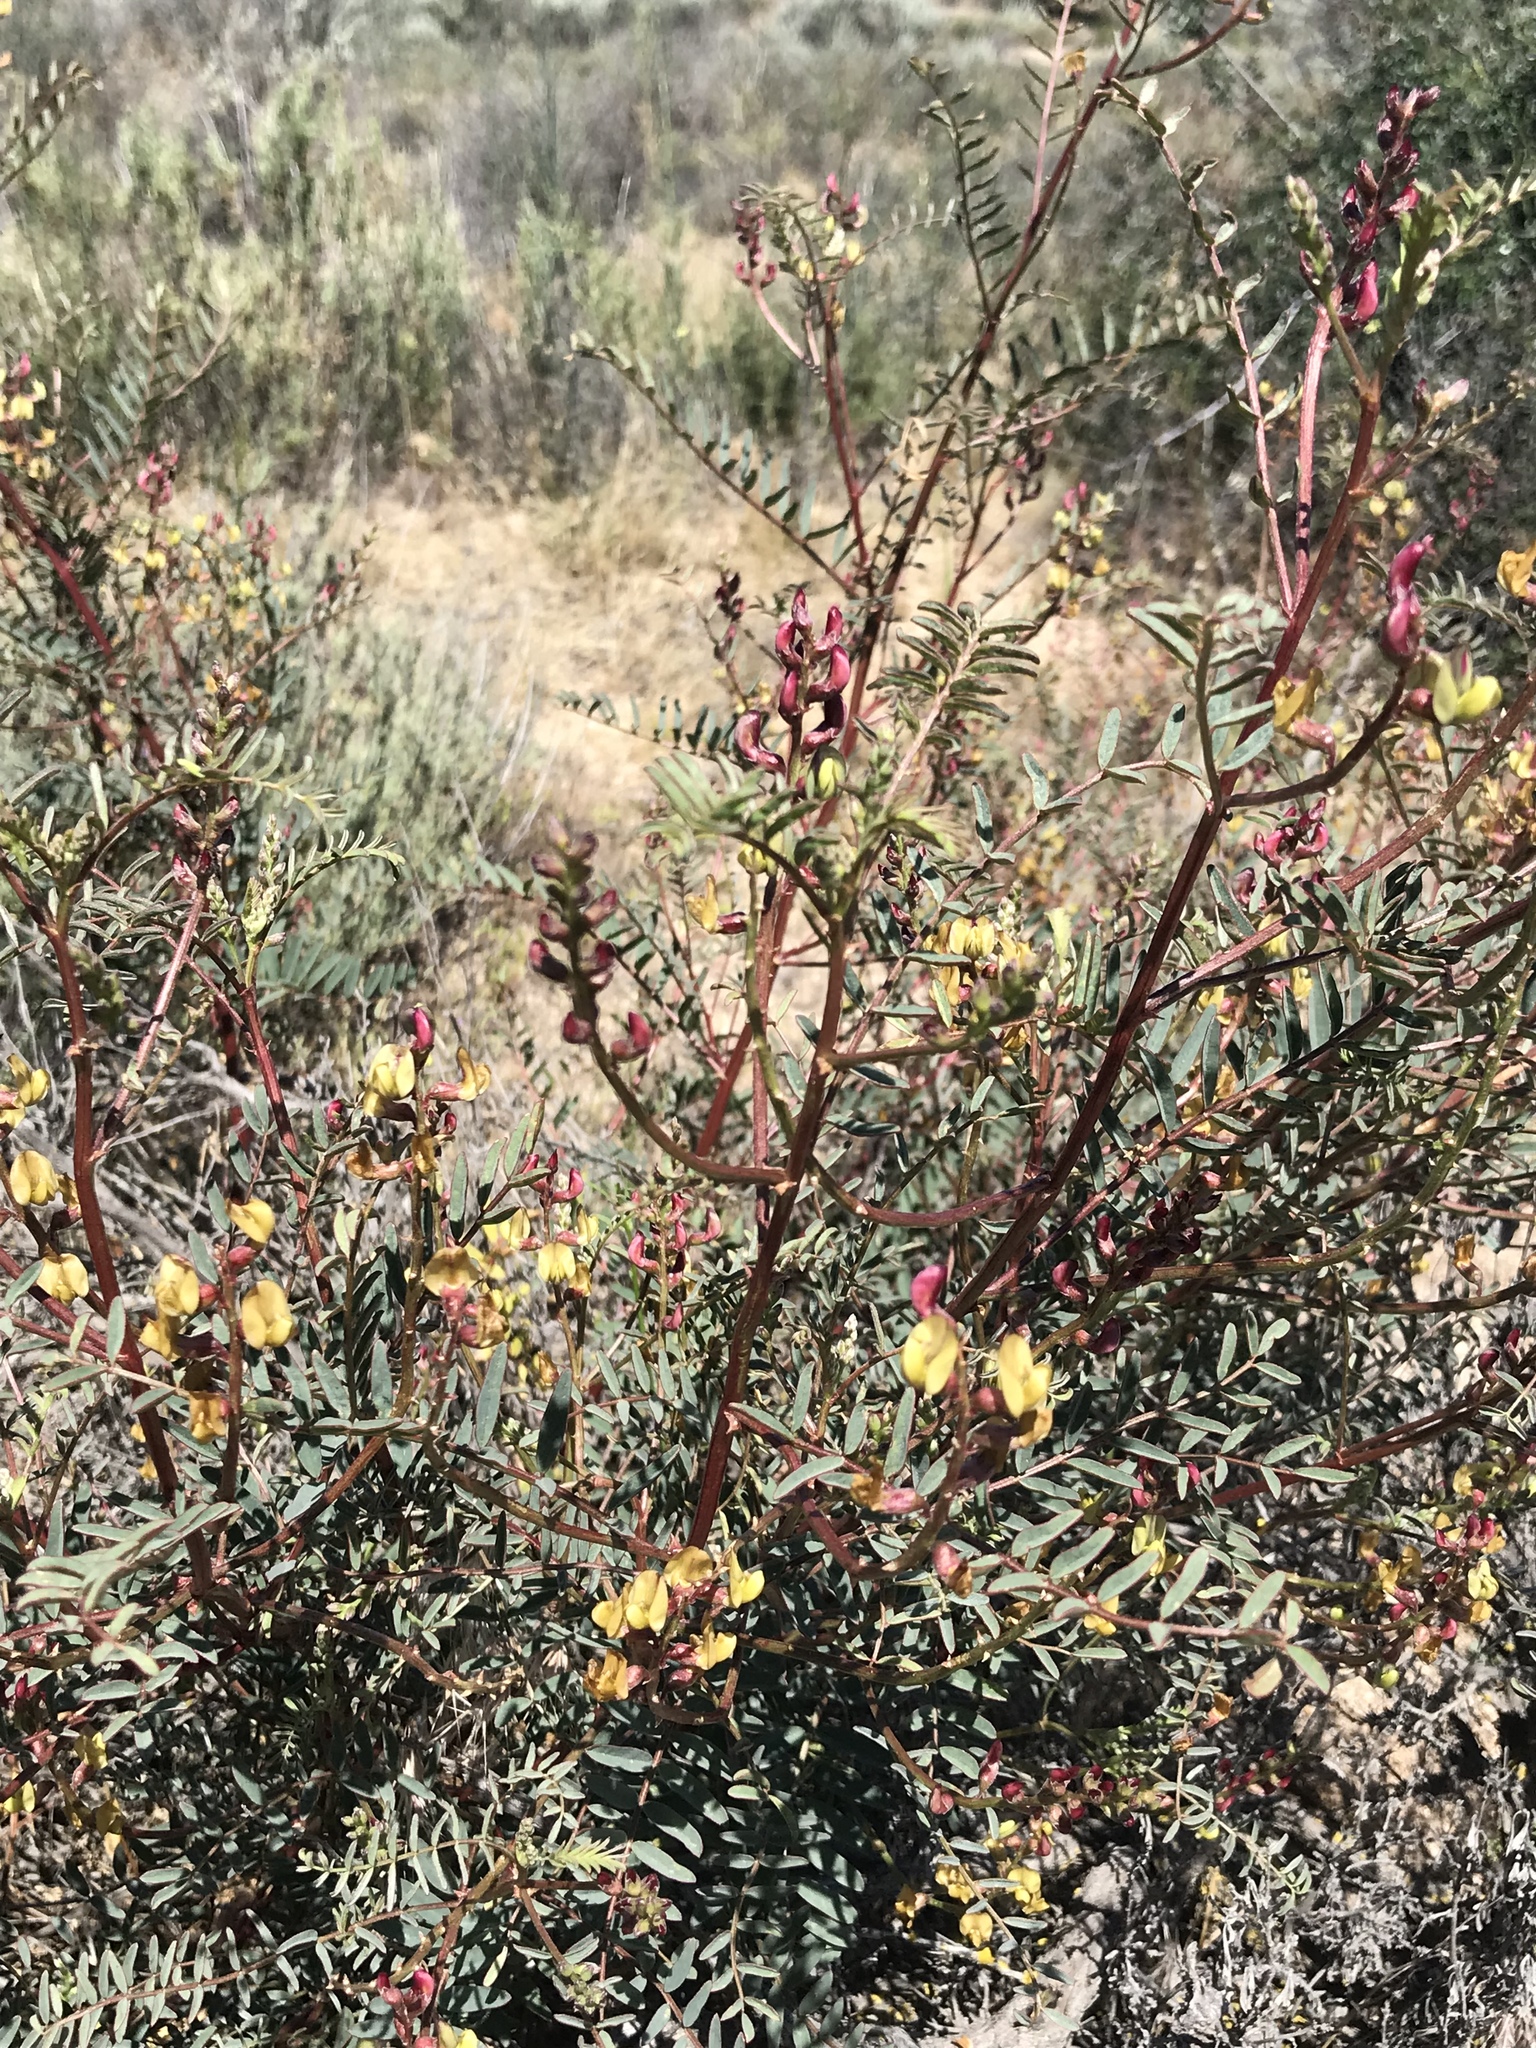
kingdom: Plantae
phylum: Tracheophyta
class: Magnoliopsida
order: Fabales
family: Fabaceae
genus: Astragalus
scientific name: Astragalus douglasii
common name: Jacumba milkvetch
